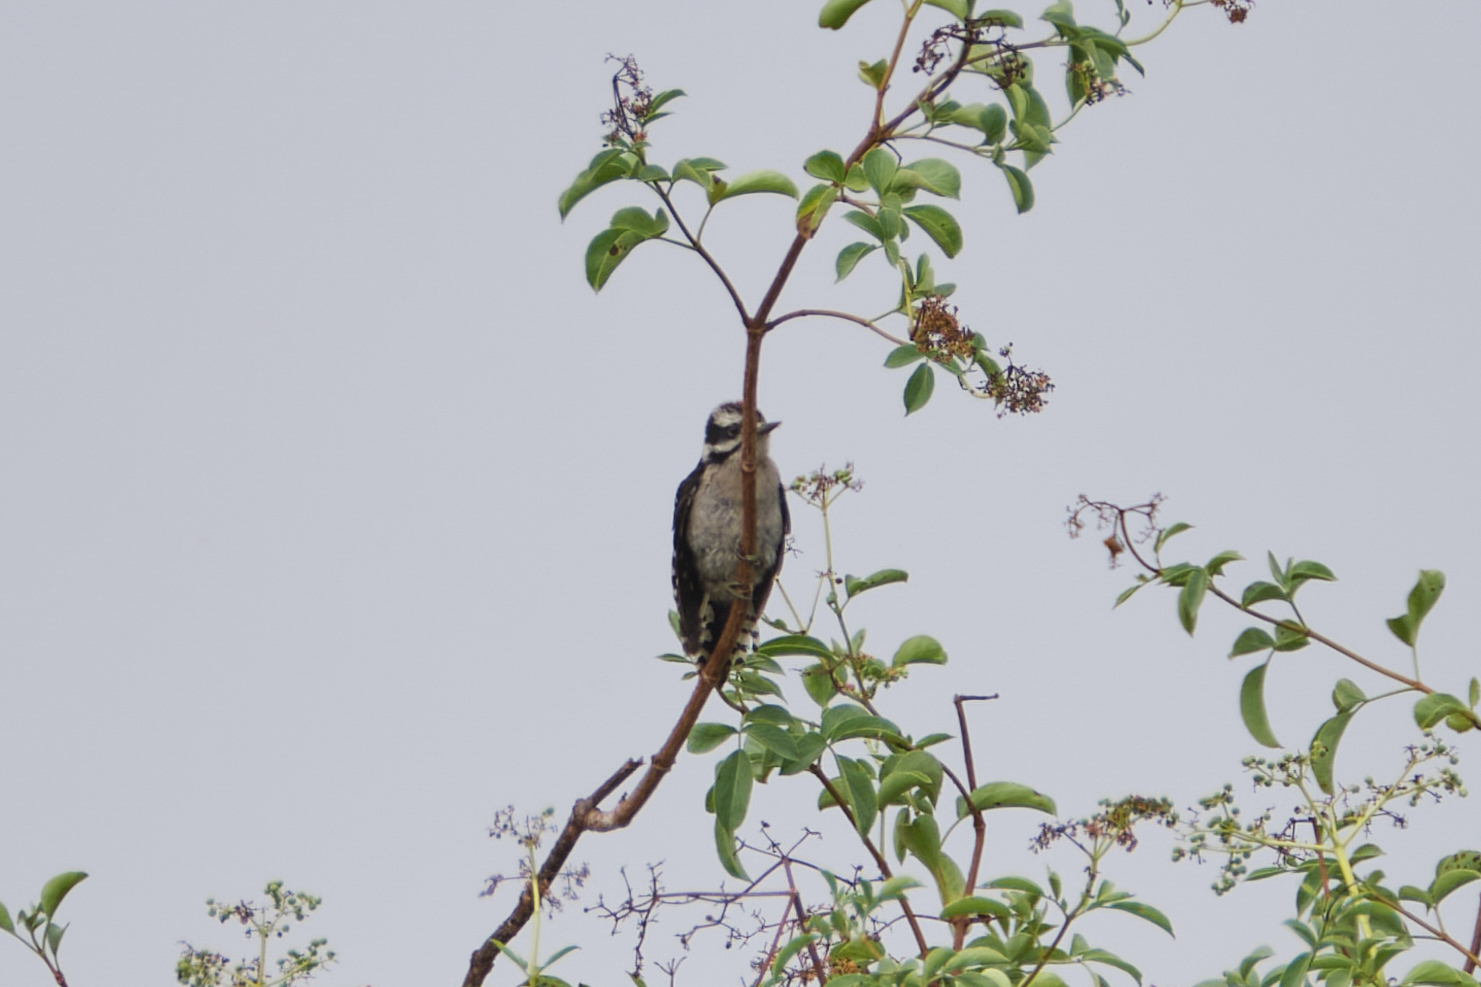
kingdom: Animalia
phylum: Chordata
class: Aves
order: Piciformes
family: Picidae
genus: Dryobates
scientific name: Dryobates pubescens
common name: Downy woodpecker
